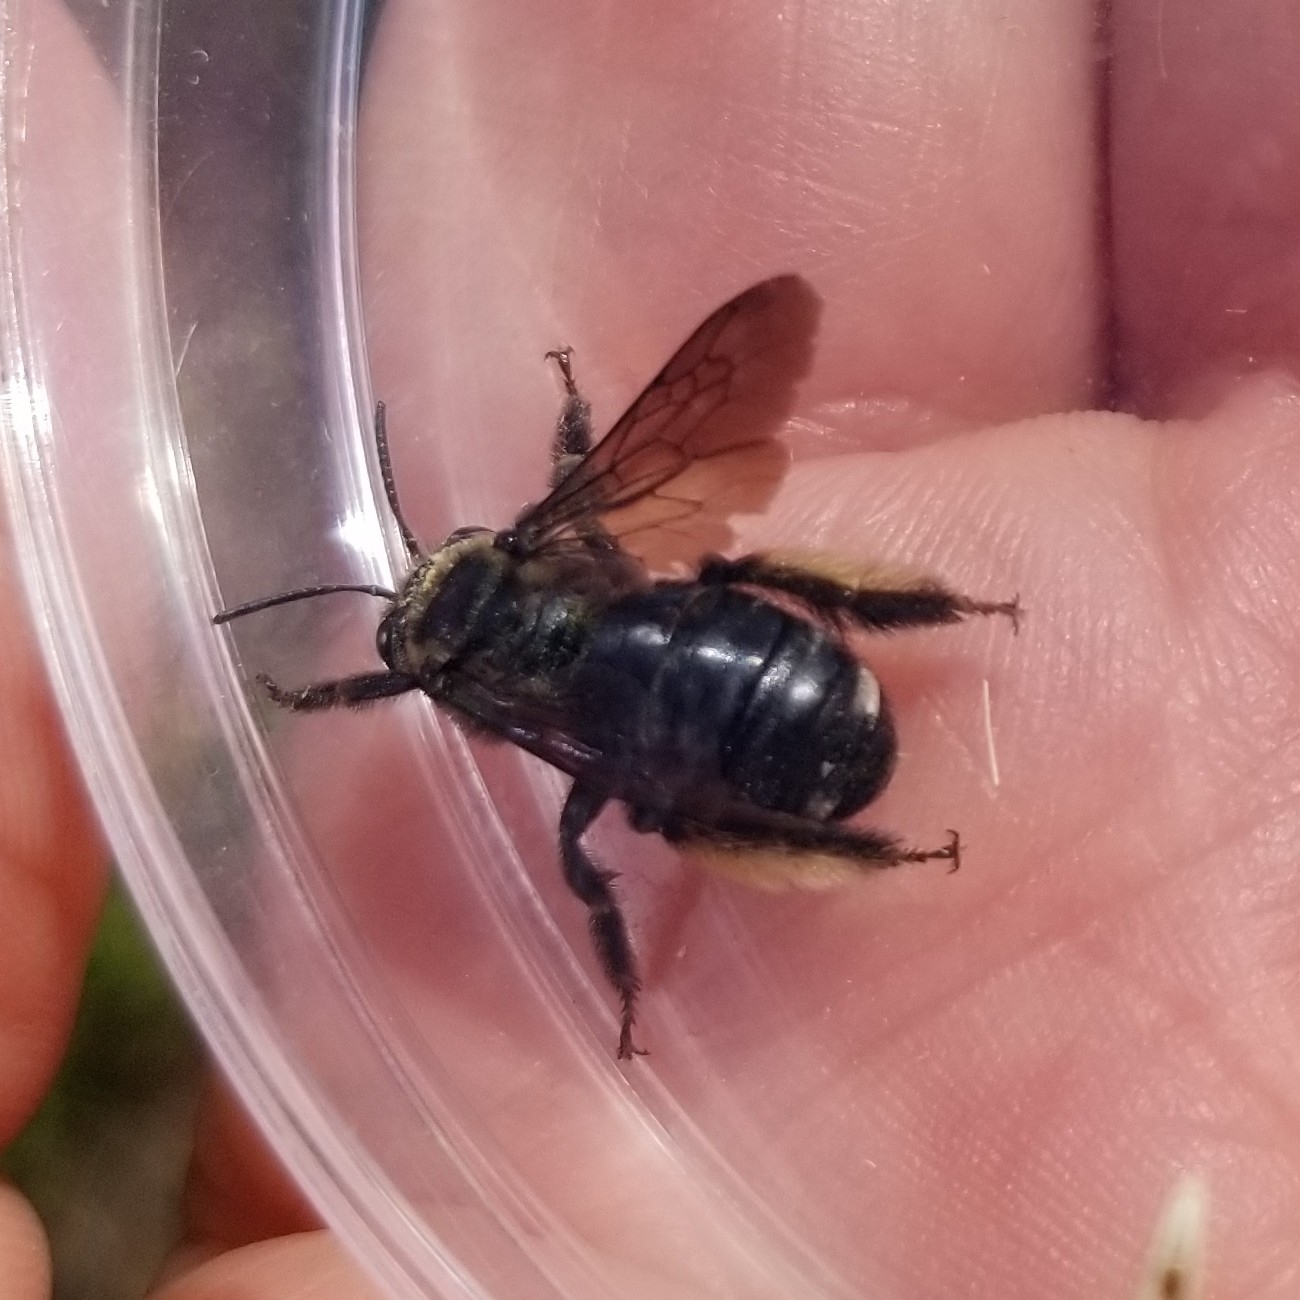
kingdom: Animalia
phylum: Arthropoda
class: Insecta
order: Hymenoptera
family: Apidae
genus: Melissodes
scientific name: Melissodes bimaculatus
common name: Two-spotted long-horned bee
